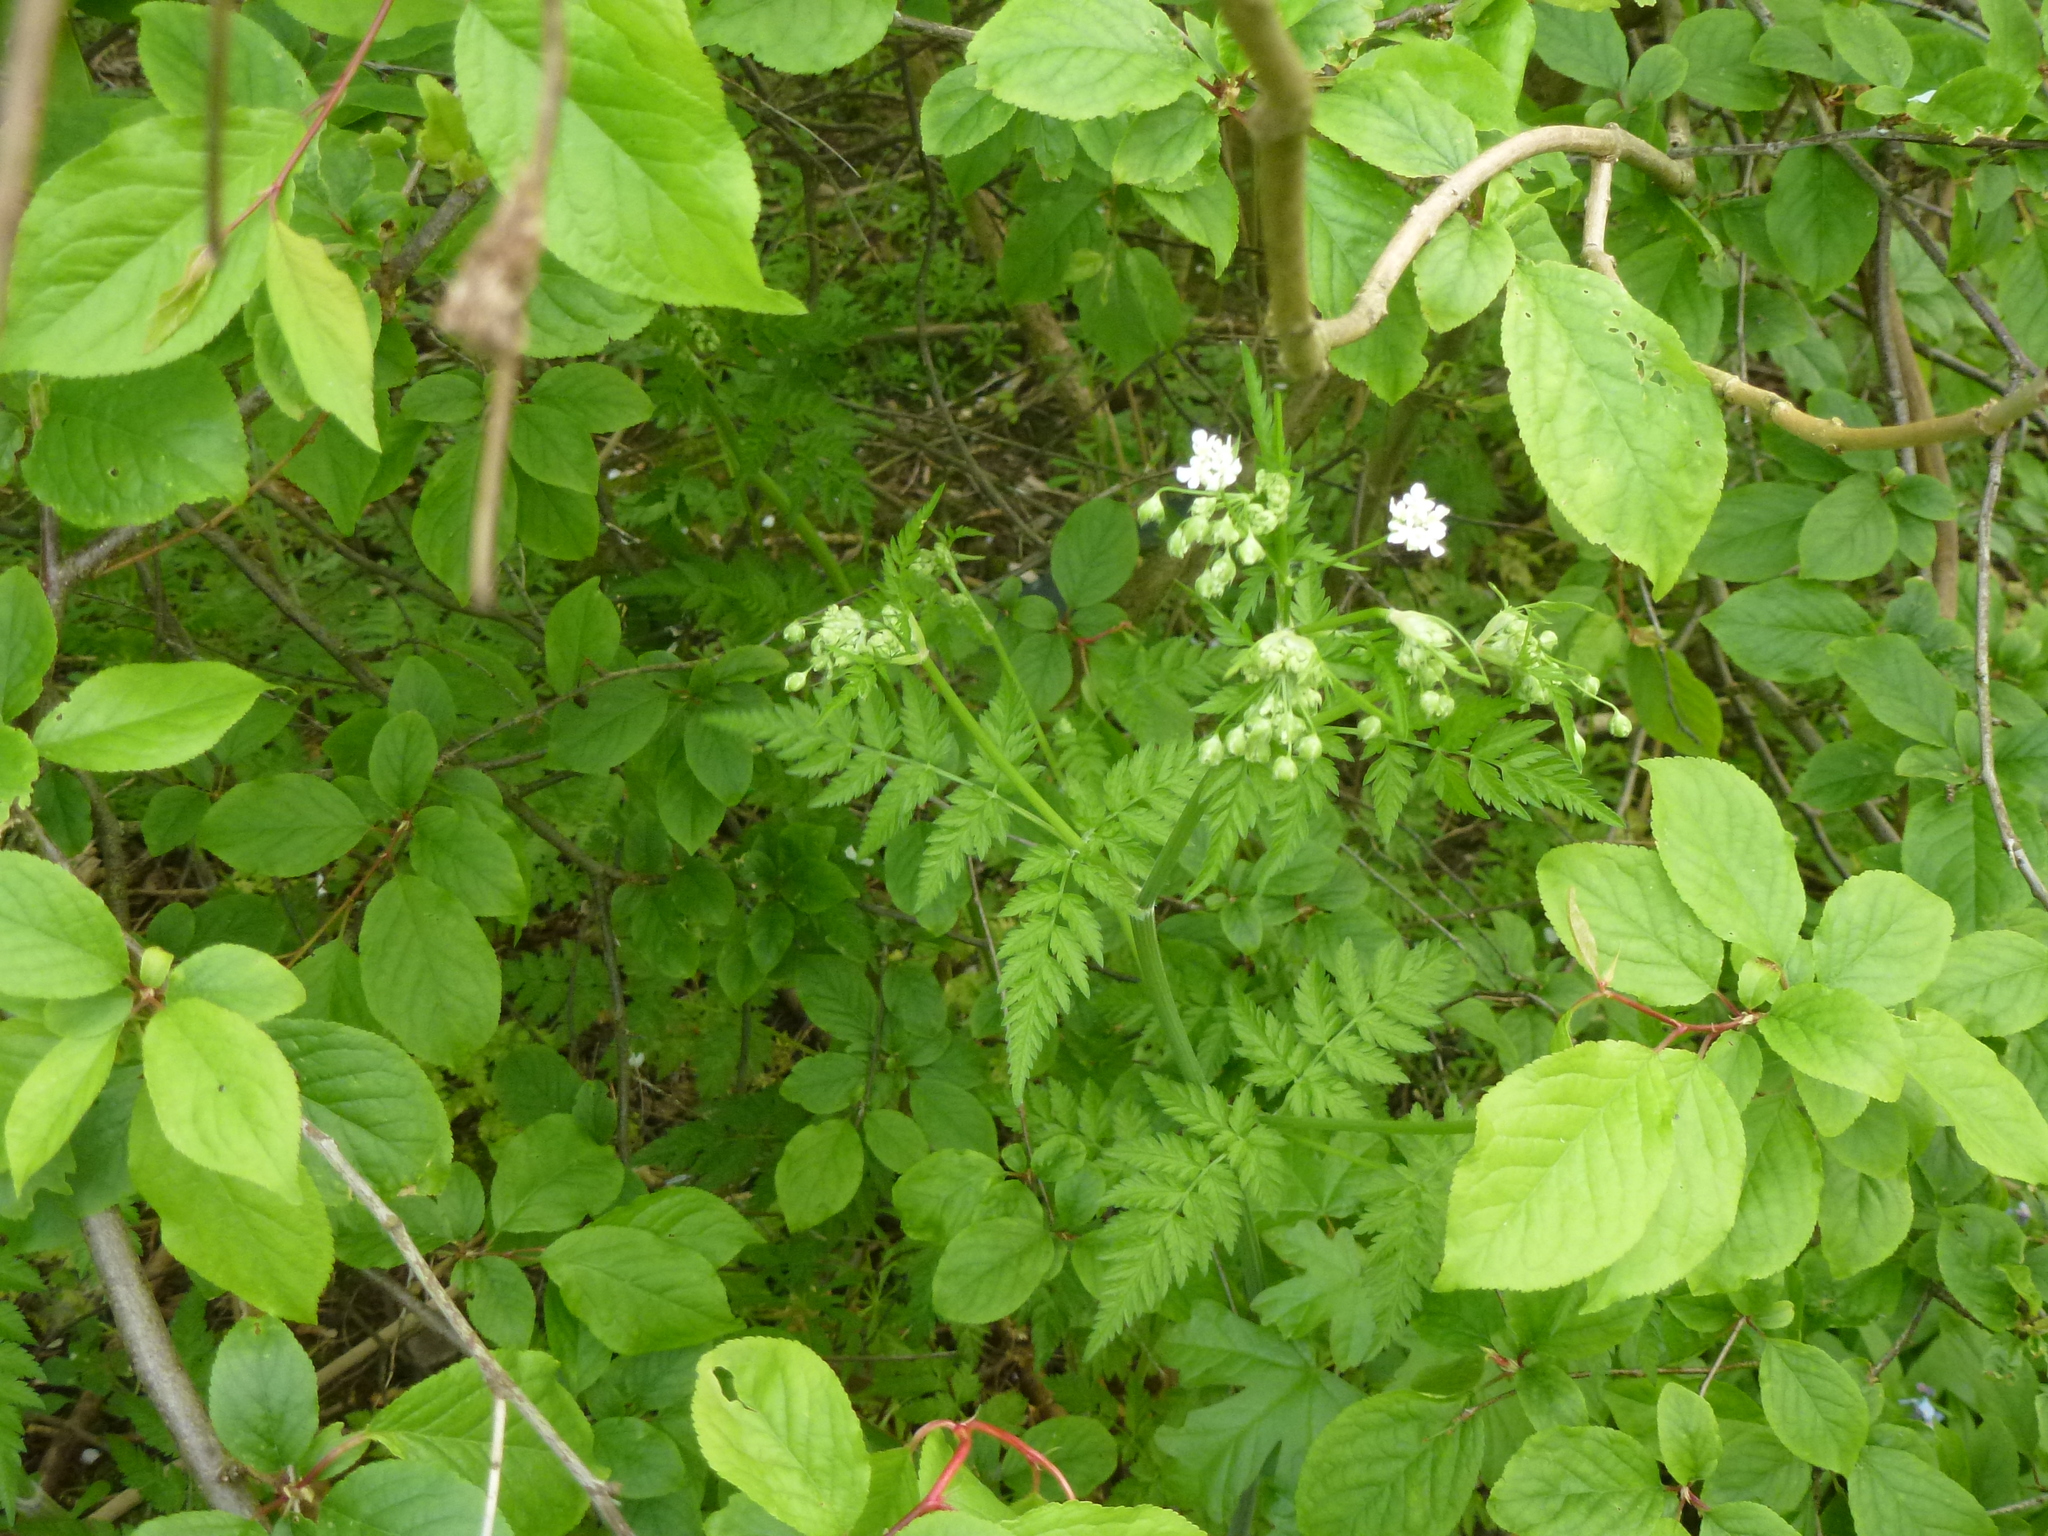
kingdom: Plantae
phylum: Tracheophyta
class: Magnoliopsida
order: Apiales
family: Apiaceae
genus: Anthriscus
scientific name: Anthriscus sylvestris
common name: Cow parsley
